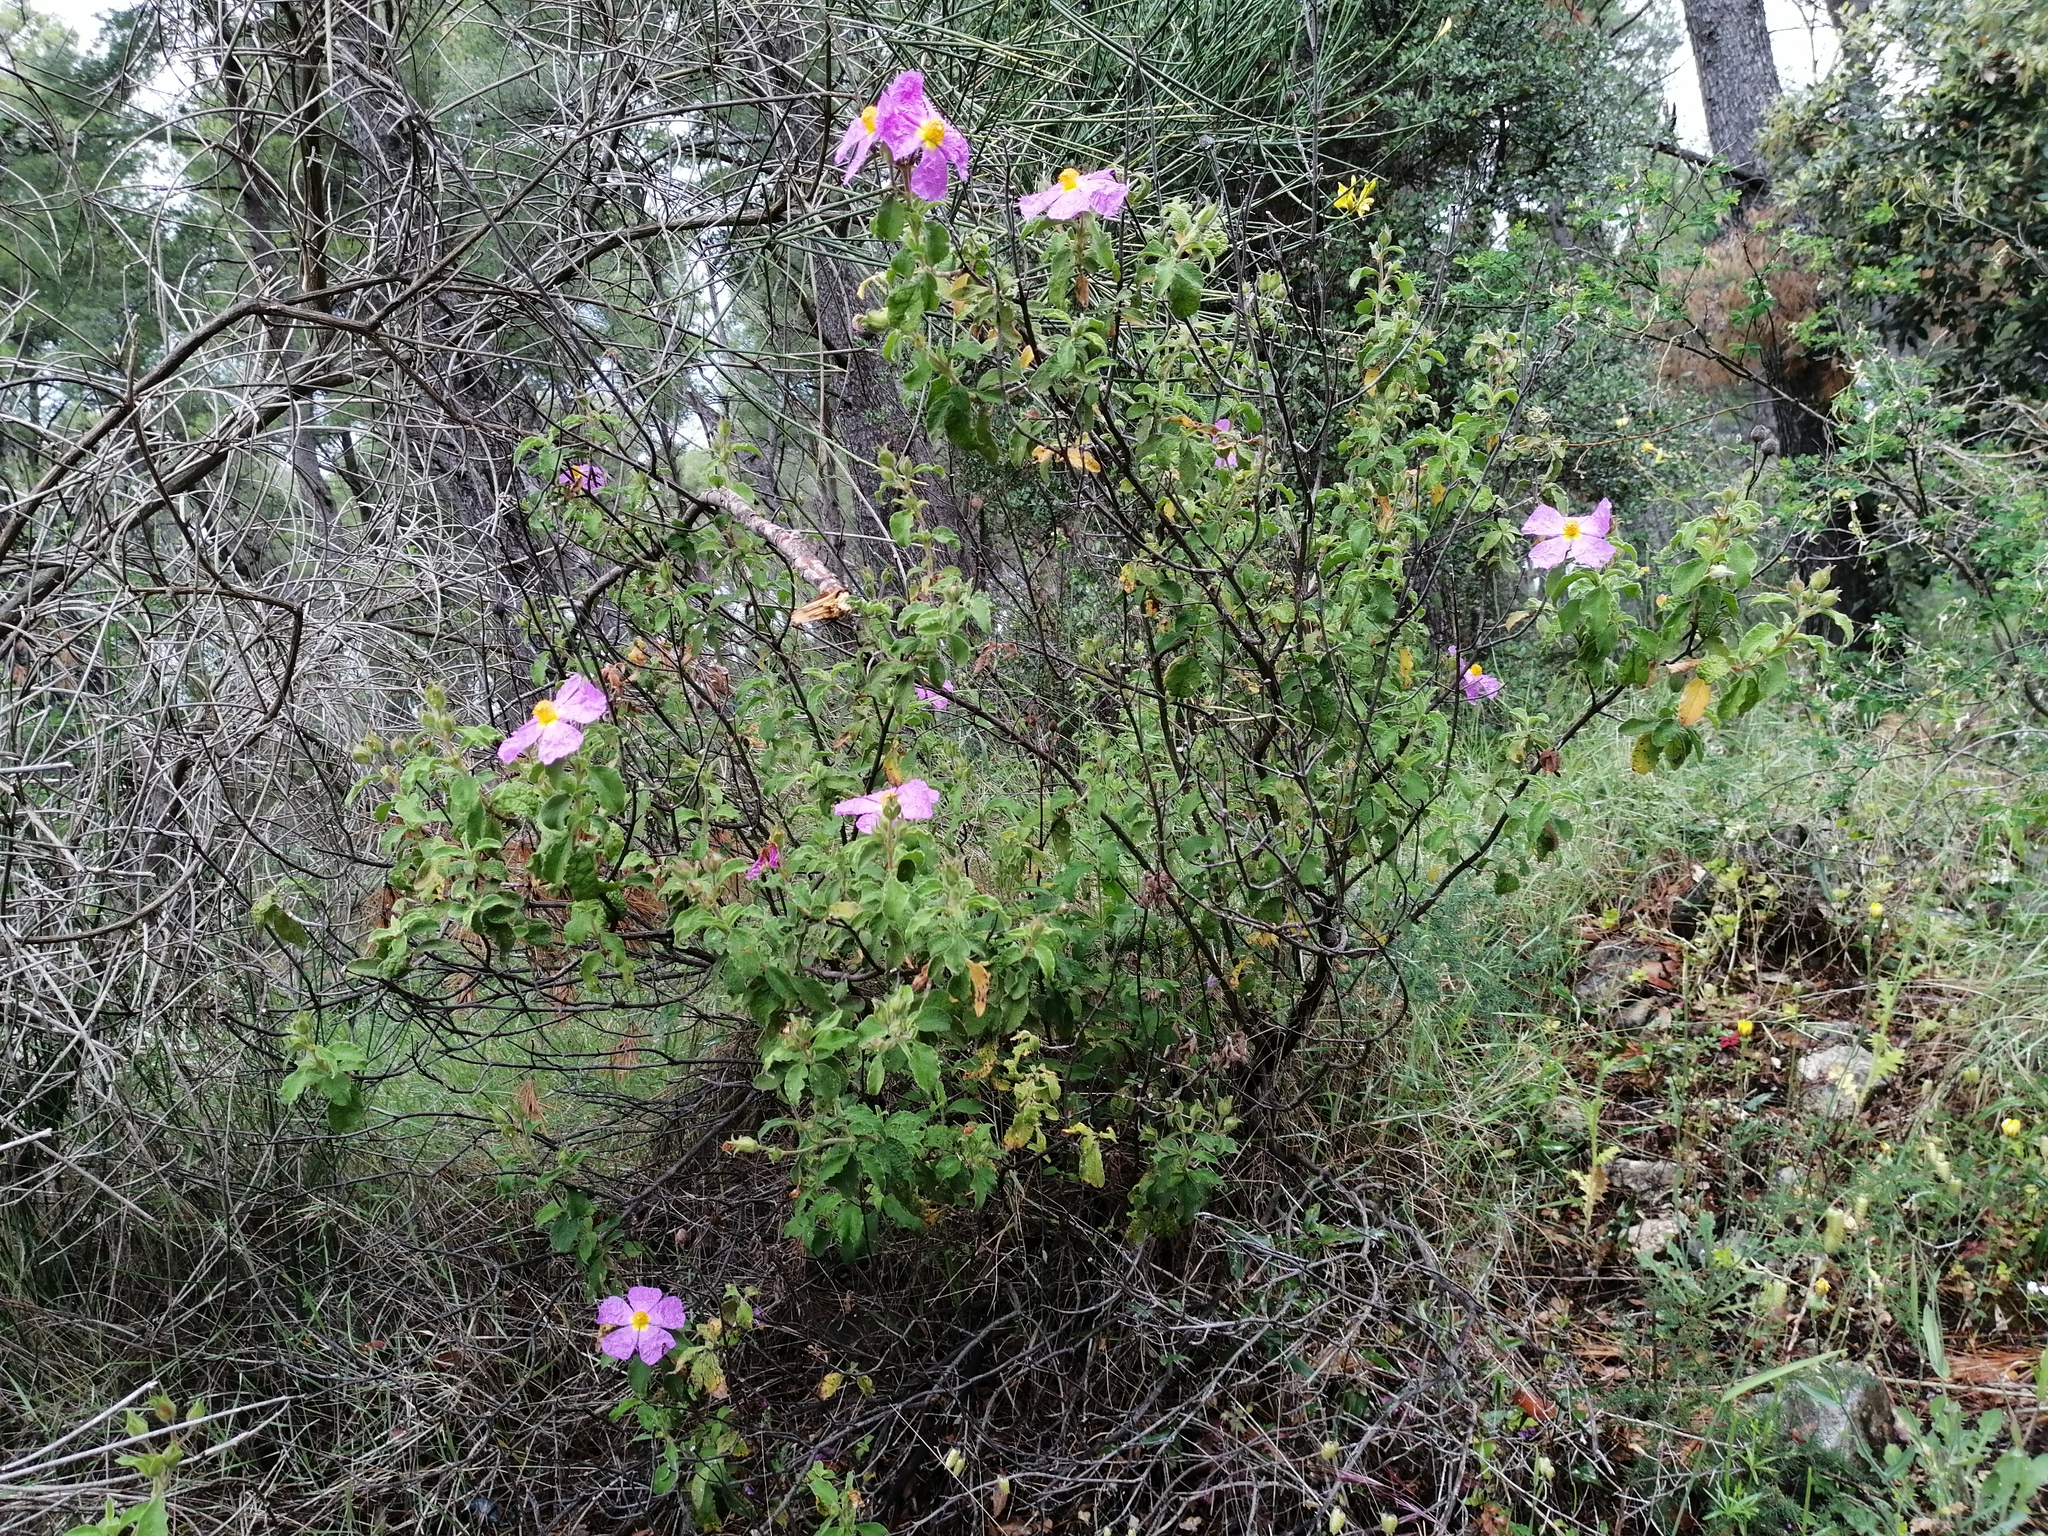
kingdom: Plantae
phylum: Tracheophyta
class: Magnoliopsida
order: Malvales
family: Cistaceae
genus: Cistus
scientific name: Cistus creticus
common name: Cretan rockrose
